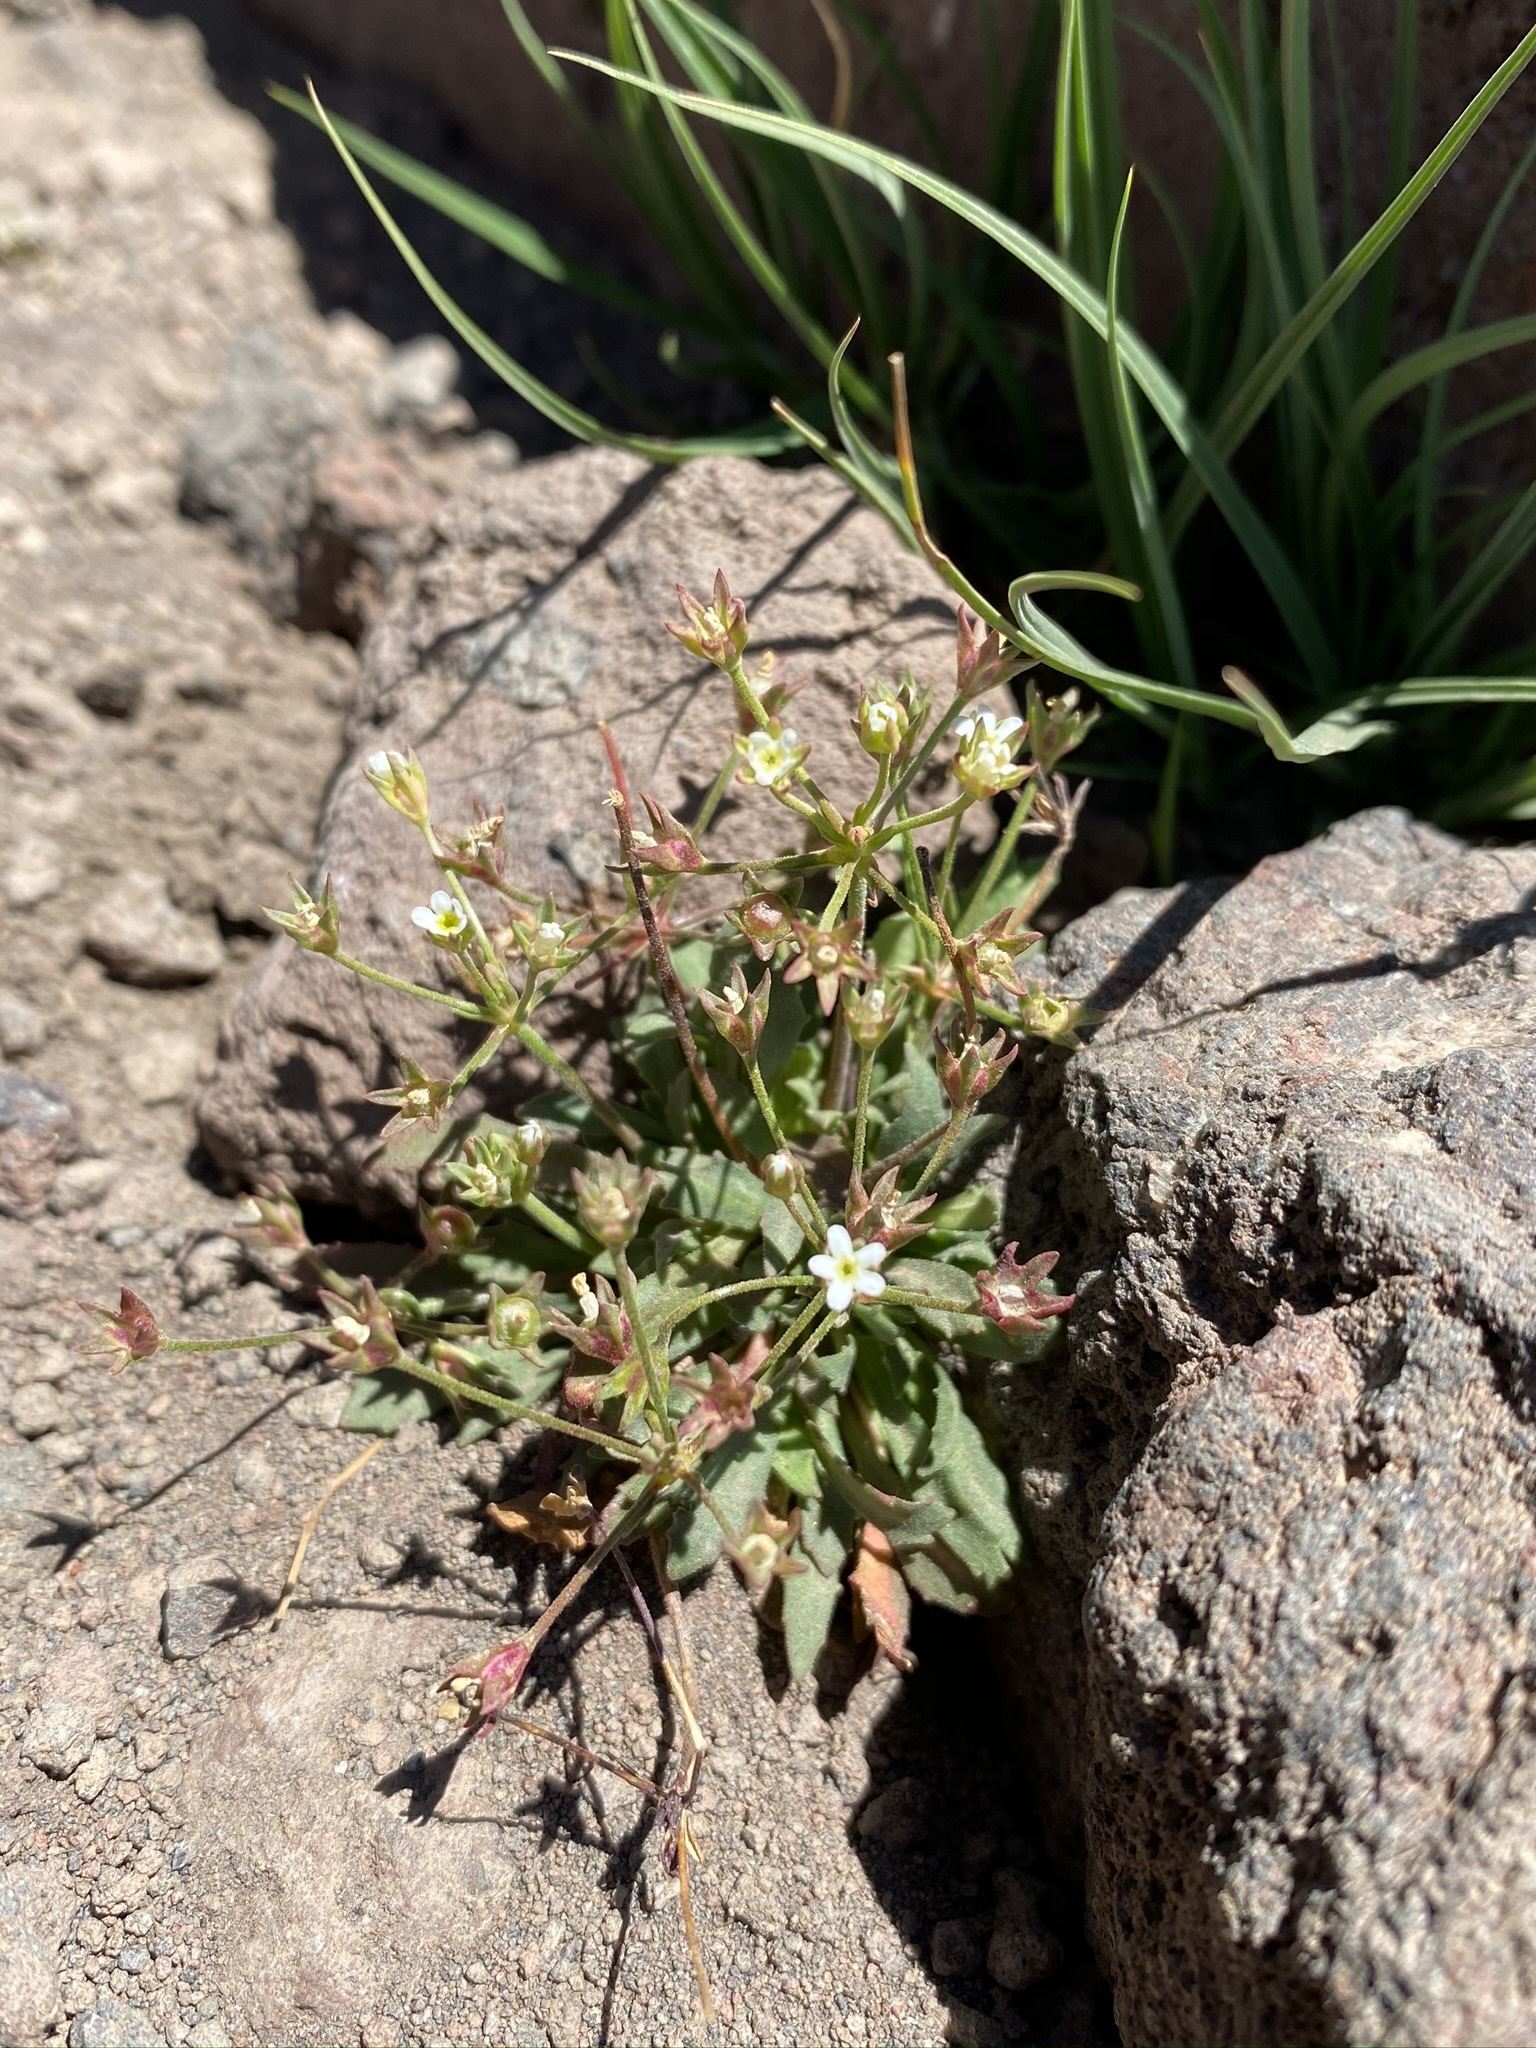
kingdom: Plantae
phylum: Tracheophyta
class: Magnoliopsida
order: Ericales
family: Primulaceae
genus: Androsace
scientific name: Androsace septentrionalis
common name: Hairy northern fairy-candelabra
